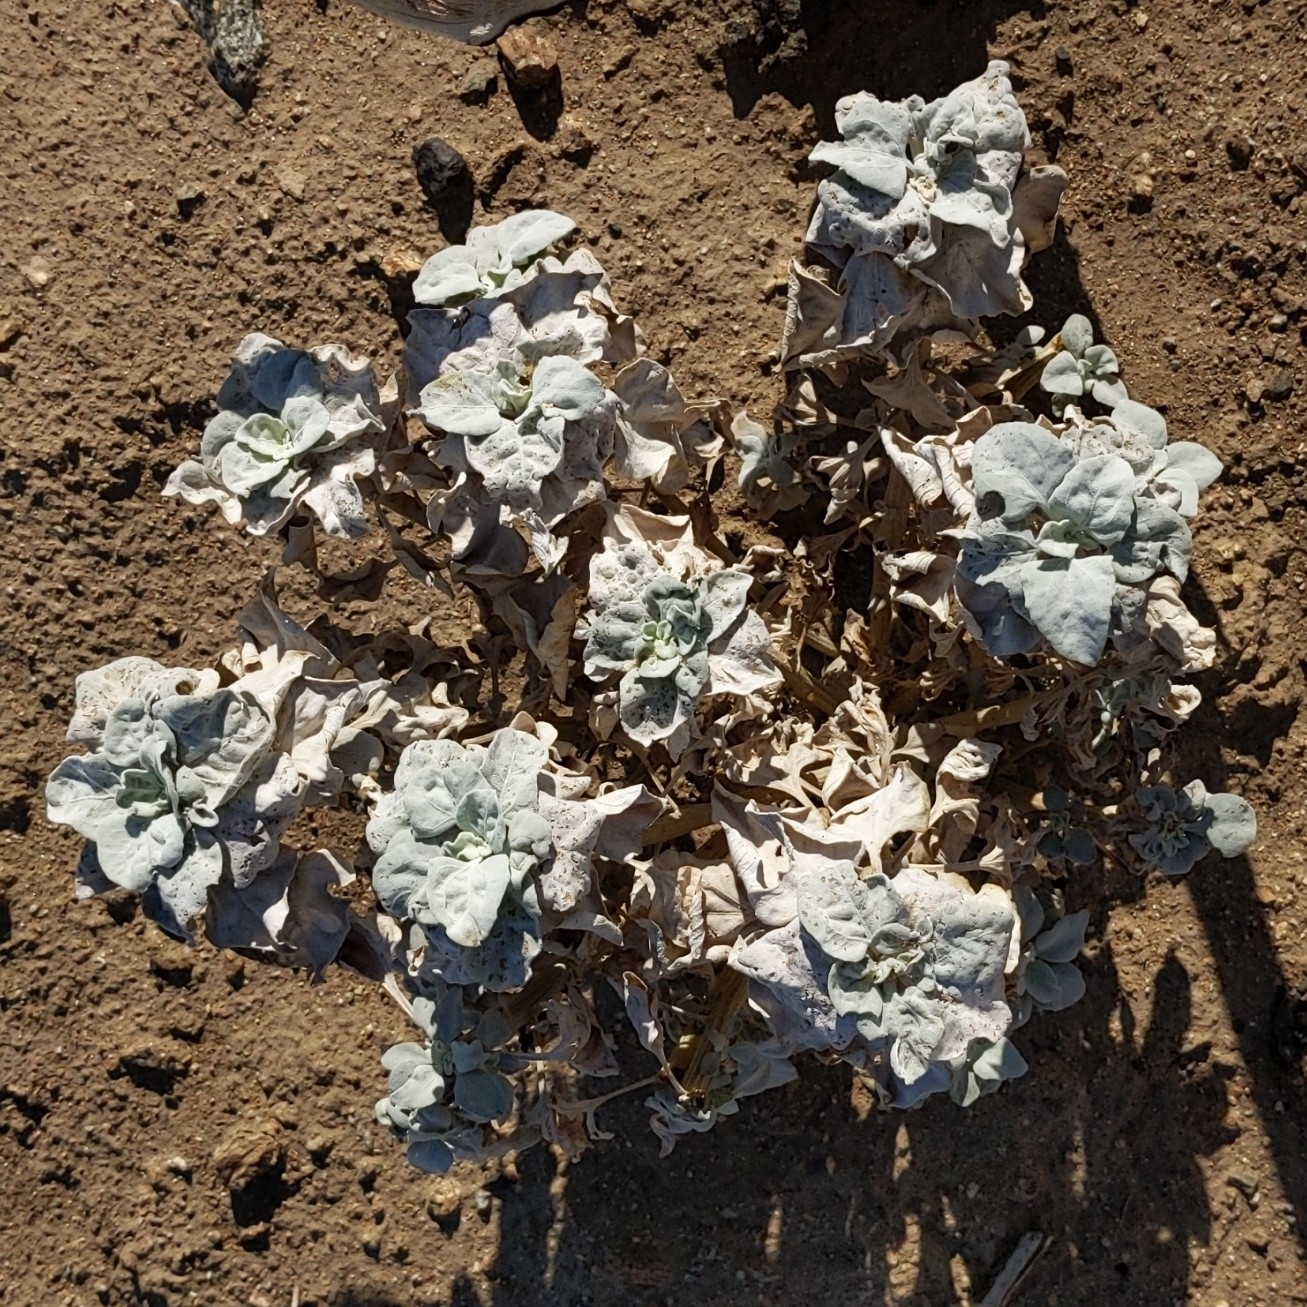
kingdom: Plantae
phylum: Tracheophyta
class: Magnoliopsida
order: Asterales
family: Asteraceae
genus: Encelia
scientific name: Encelia farinosa
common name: Brittlebush
